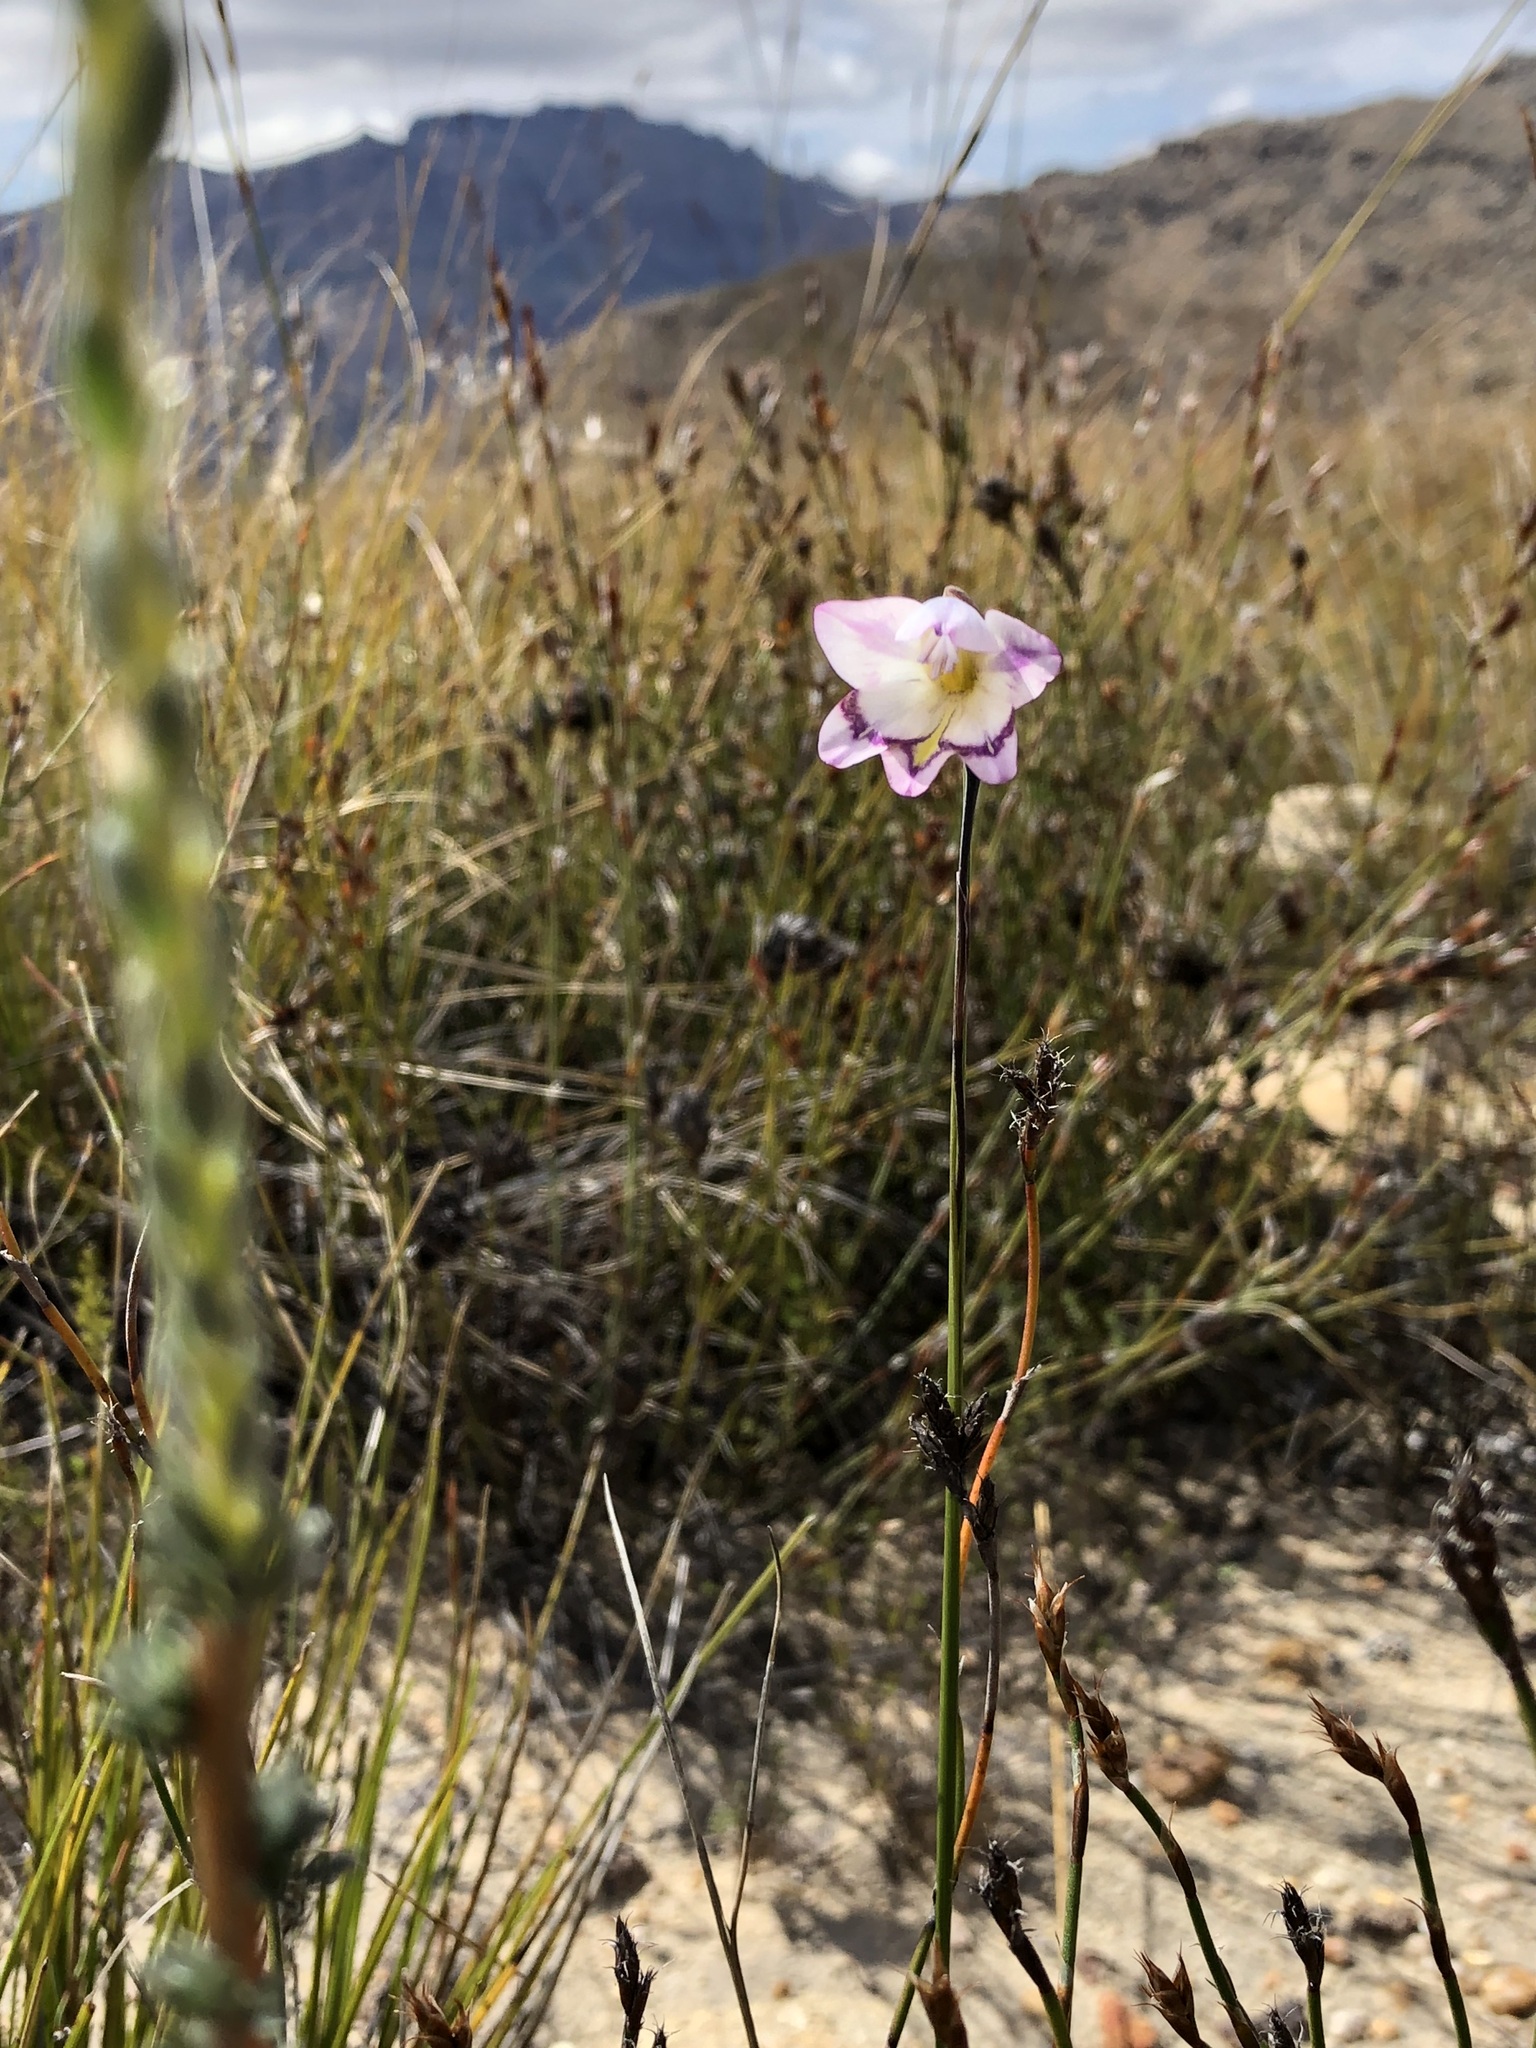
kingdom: Plantae
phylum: Tracheophyta
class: Liliopsida
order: Asparagales
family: Iridaceae
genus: Gladiolus
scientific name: Gladiolus inflatus
